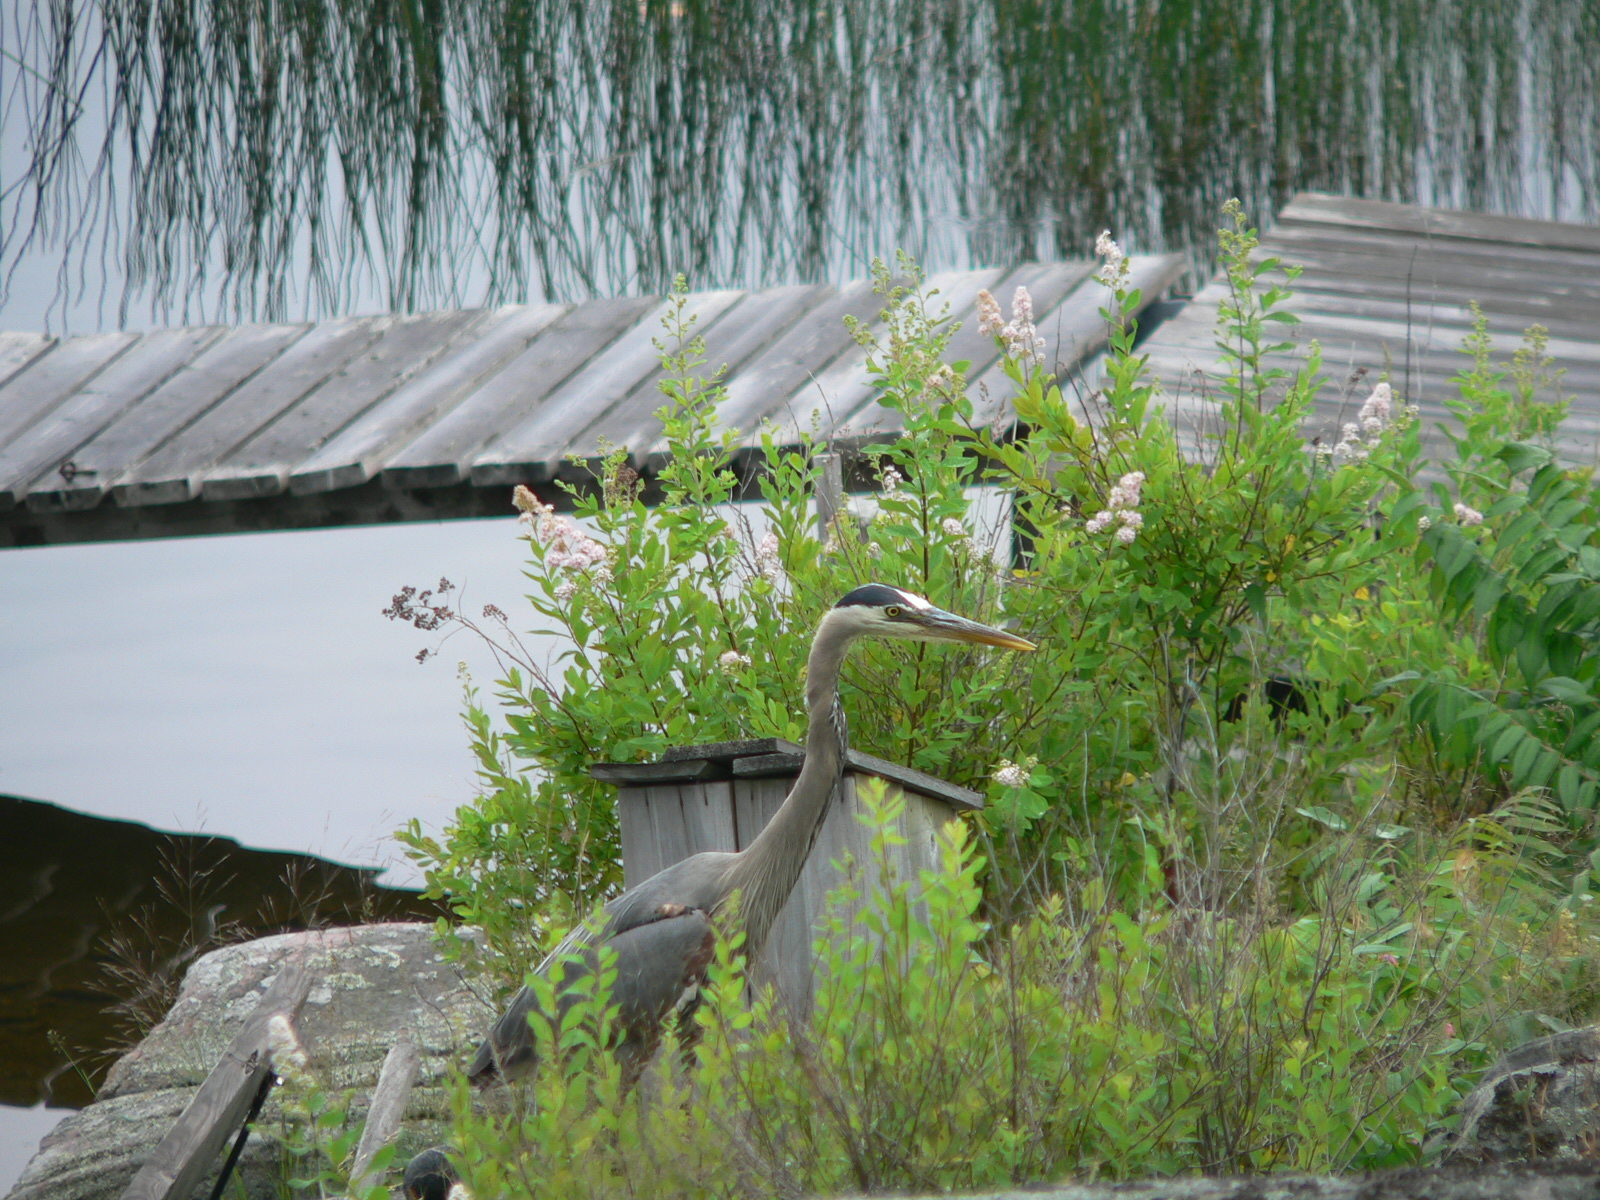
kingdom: Animalia
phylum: Chordata
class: Aves
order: Pelecaniformes
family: Ardeidae
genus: Ardea
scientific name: Ardea herodias
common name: Great blue heron
